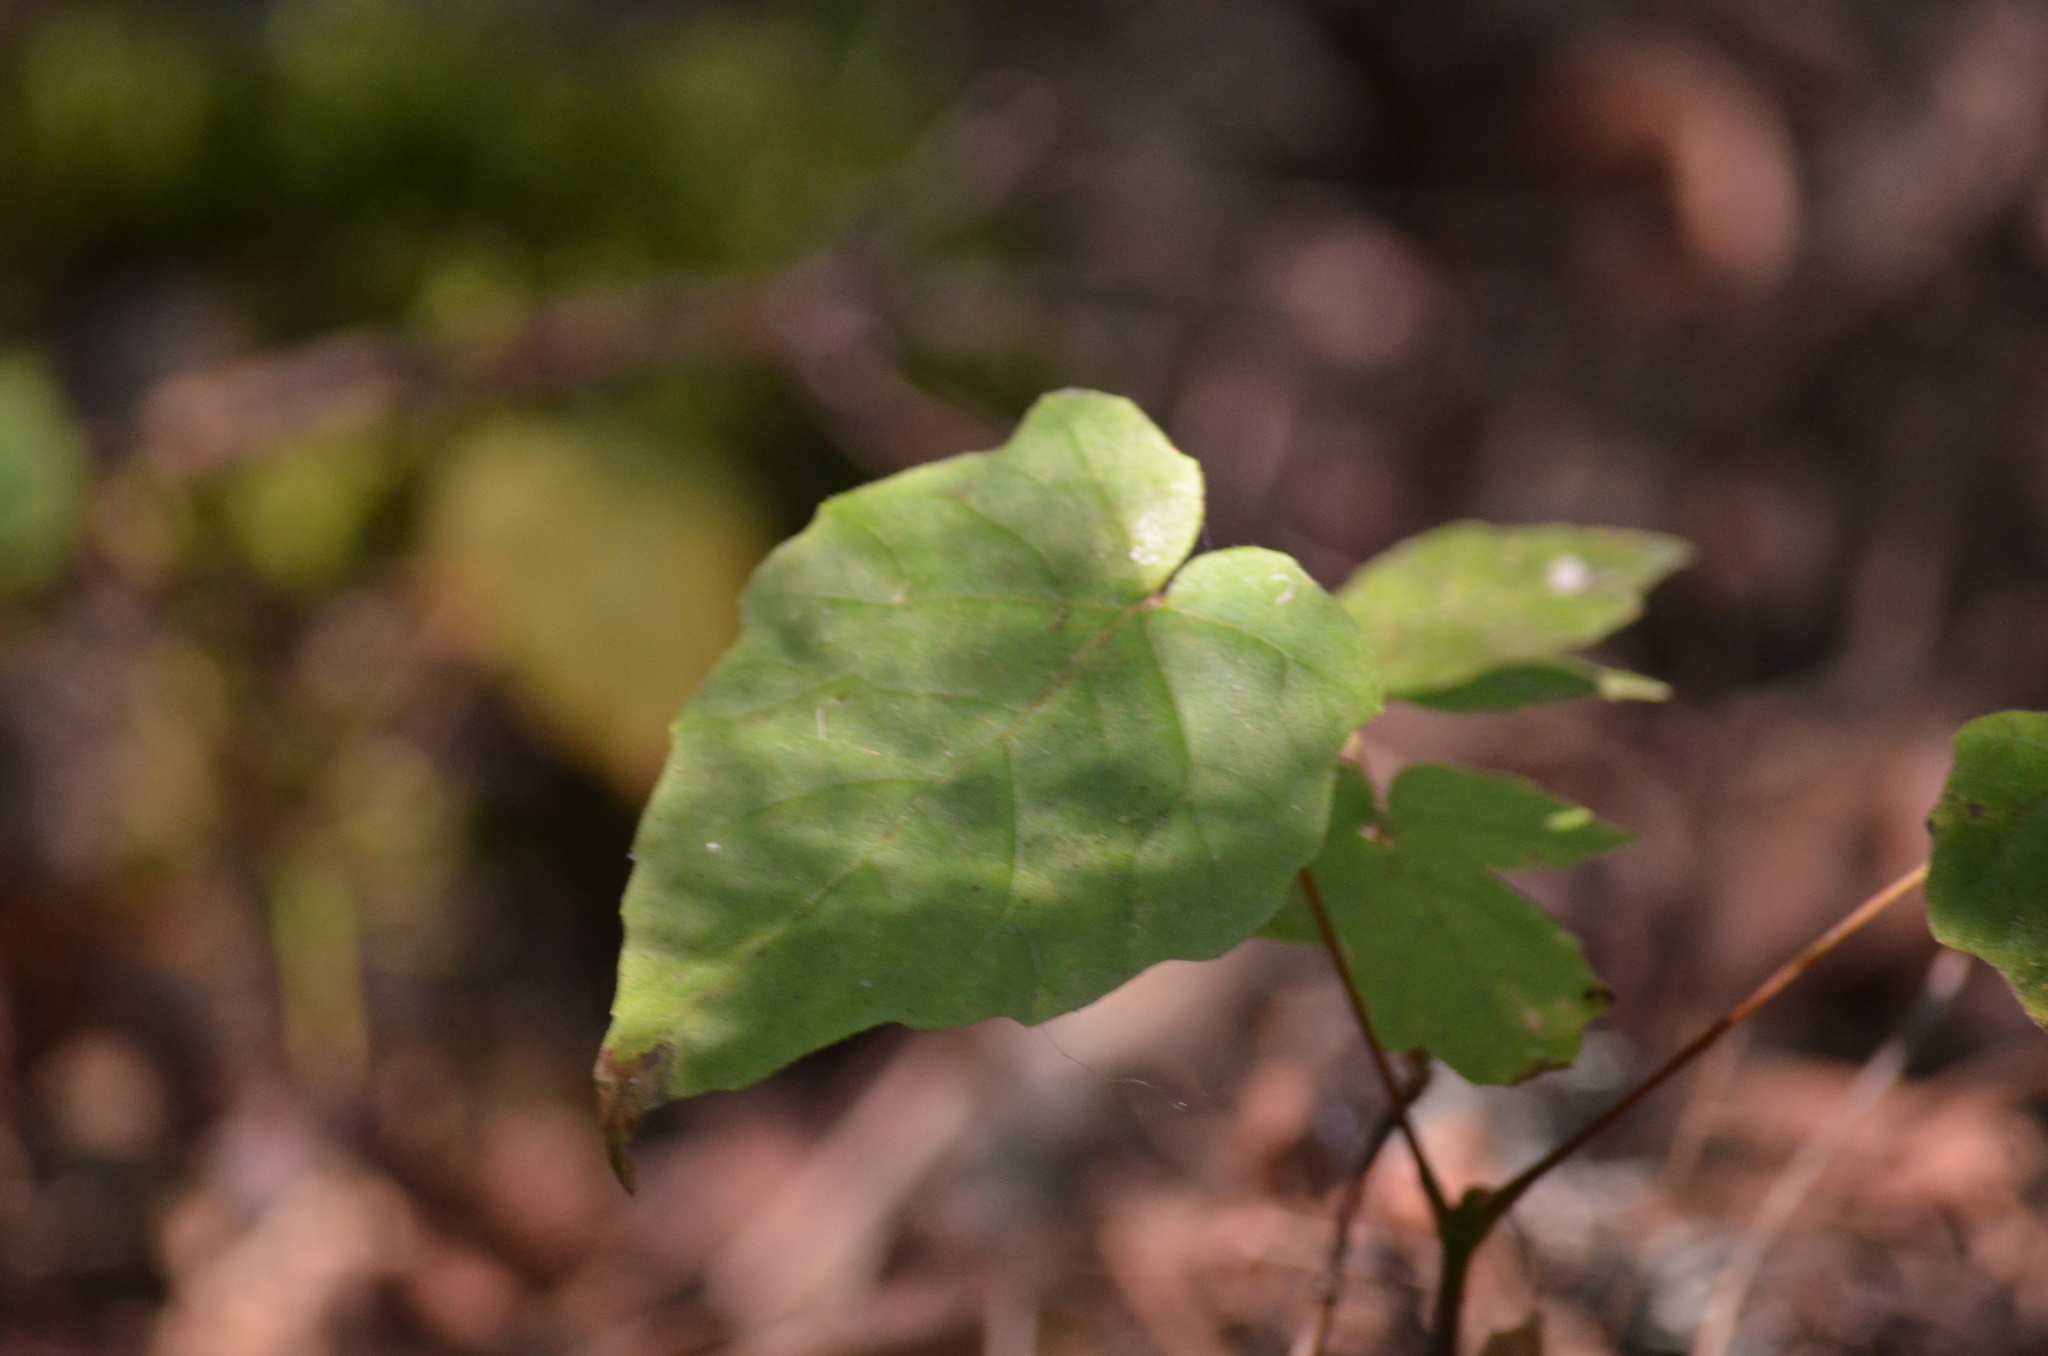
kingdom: Plantae
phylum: Tracheophyta
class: Magnoliopsida
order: Sapindales
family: Sapindaceae
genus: Acer
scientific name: Acer macrophyllum
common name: Oregon maple
